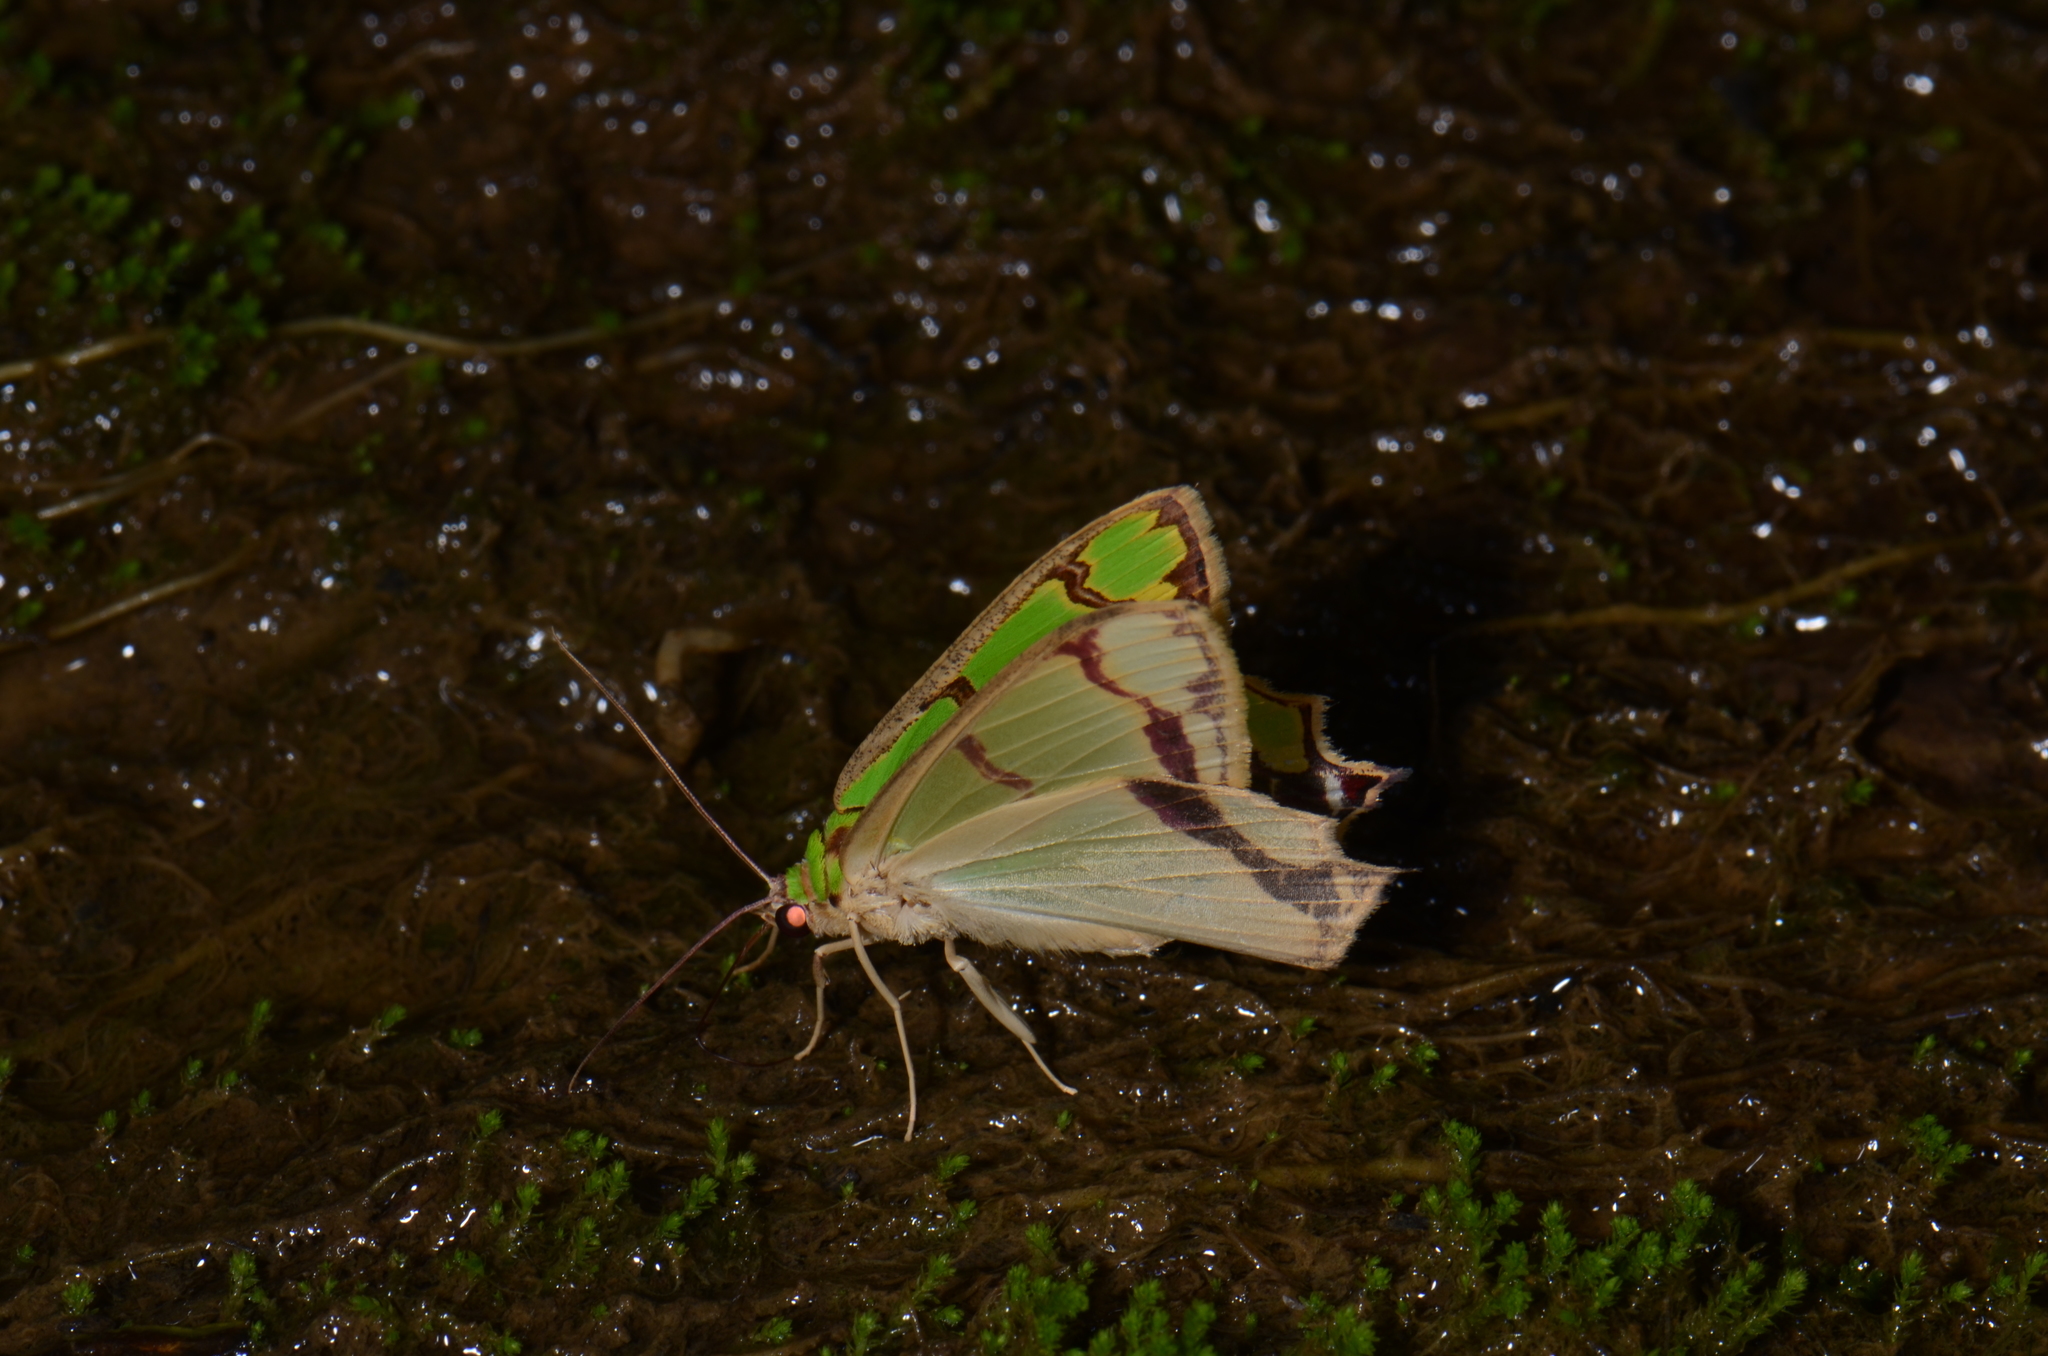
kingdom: Animalia
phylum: Arthropoda
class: Insecta
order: Lepidoptera
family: Geometridae
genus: Agathia
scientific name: Agathia succedanea
